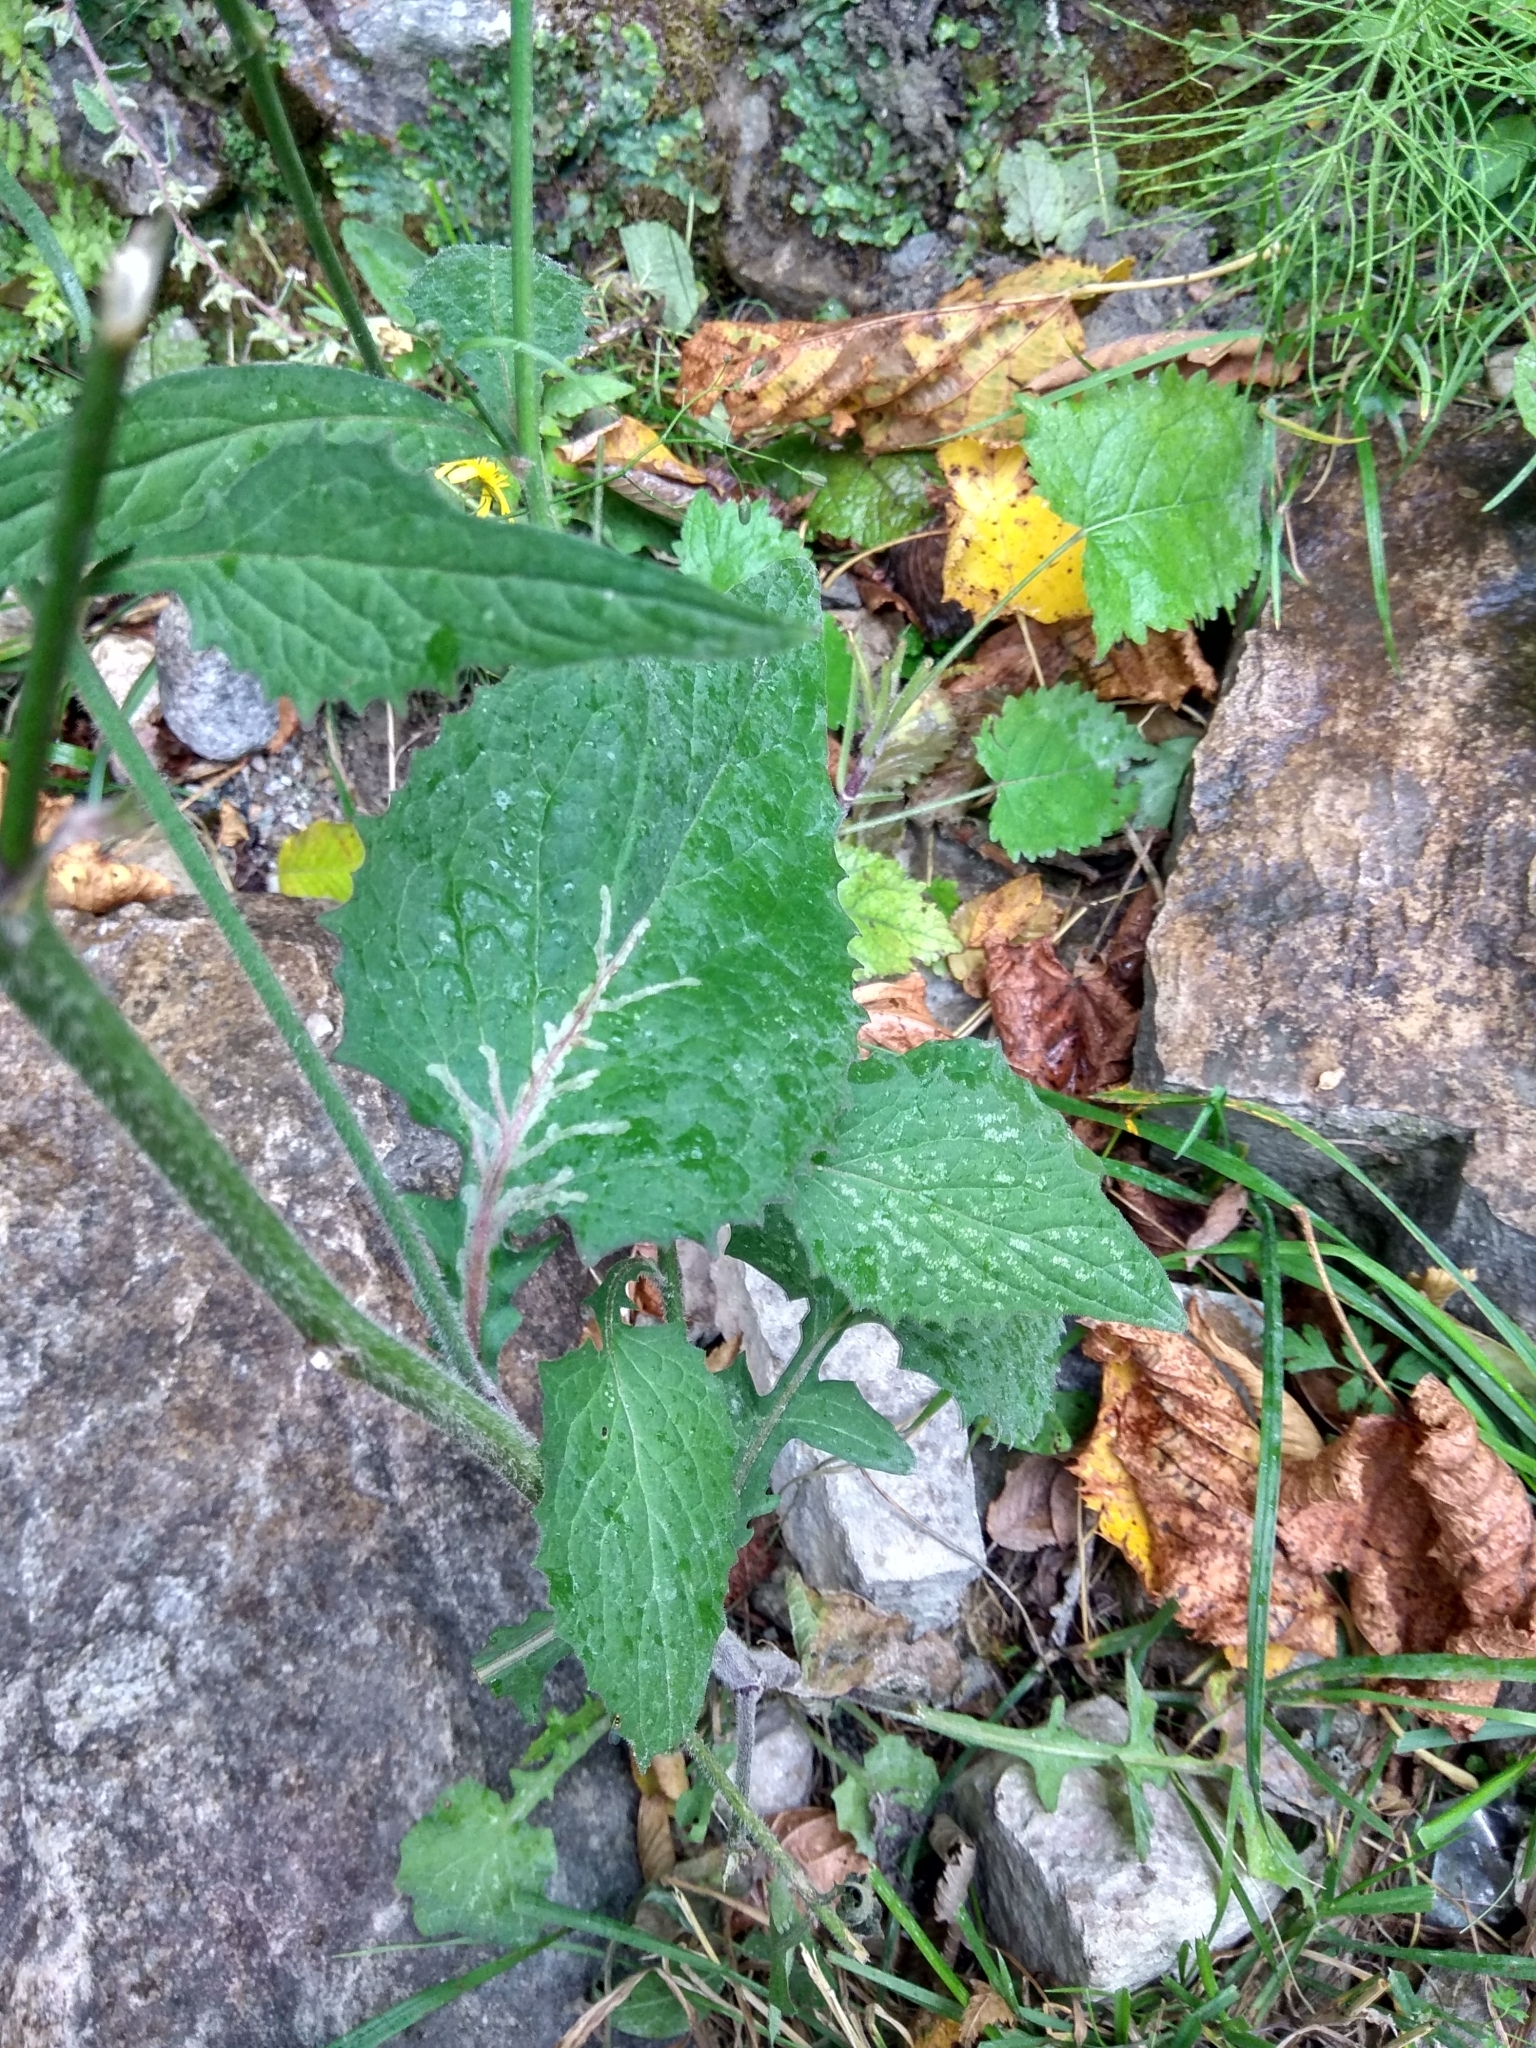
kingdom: Plantae
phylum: Tracheophyta
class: Magnoliopsida
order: Asterales
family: Asteraceae
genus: Lapsana
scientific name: Lapsana communis
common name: Nipplewort
